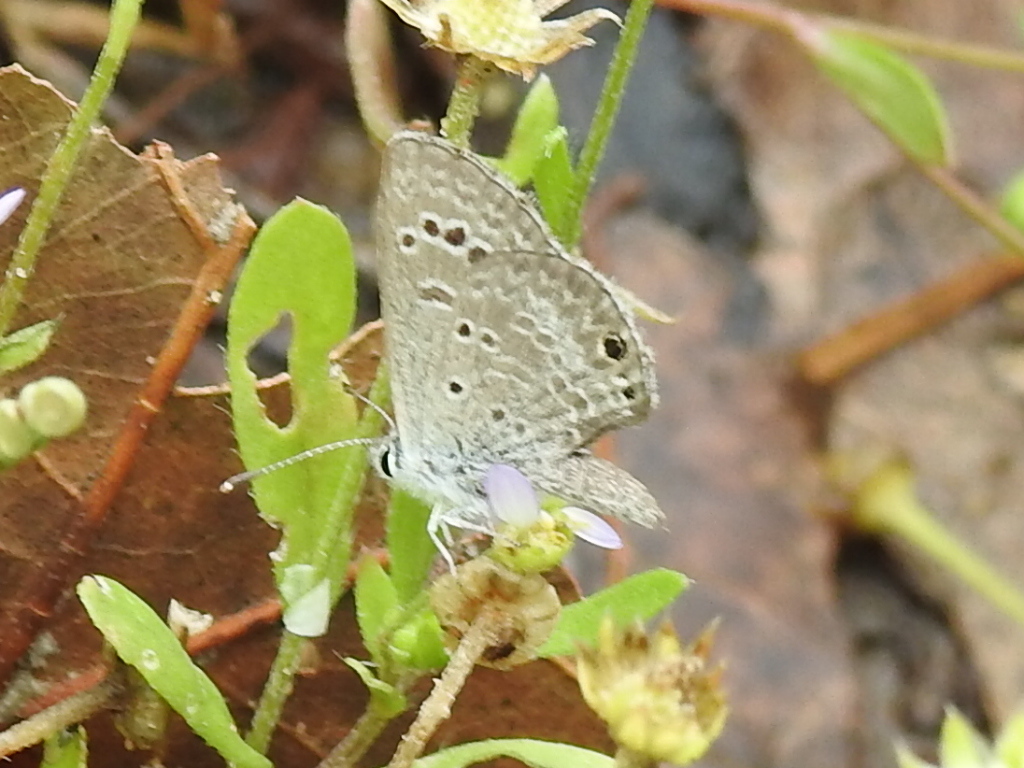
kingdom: Animalia
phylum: Arthropoda
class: Insecta
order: Lepidoptera
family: Lycaenidae
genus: Echinargus
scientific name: Echinargus isola
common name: Reakirt's blue
